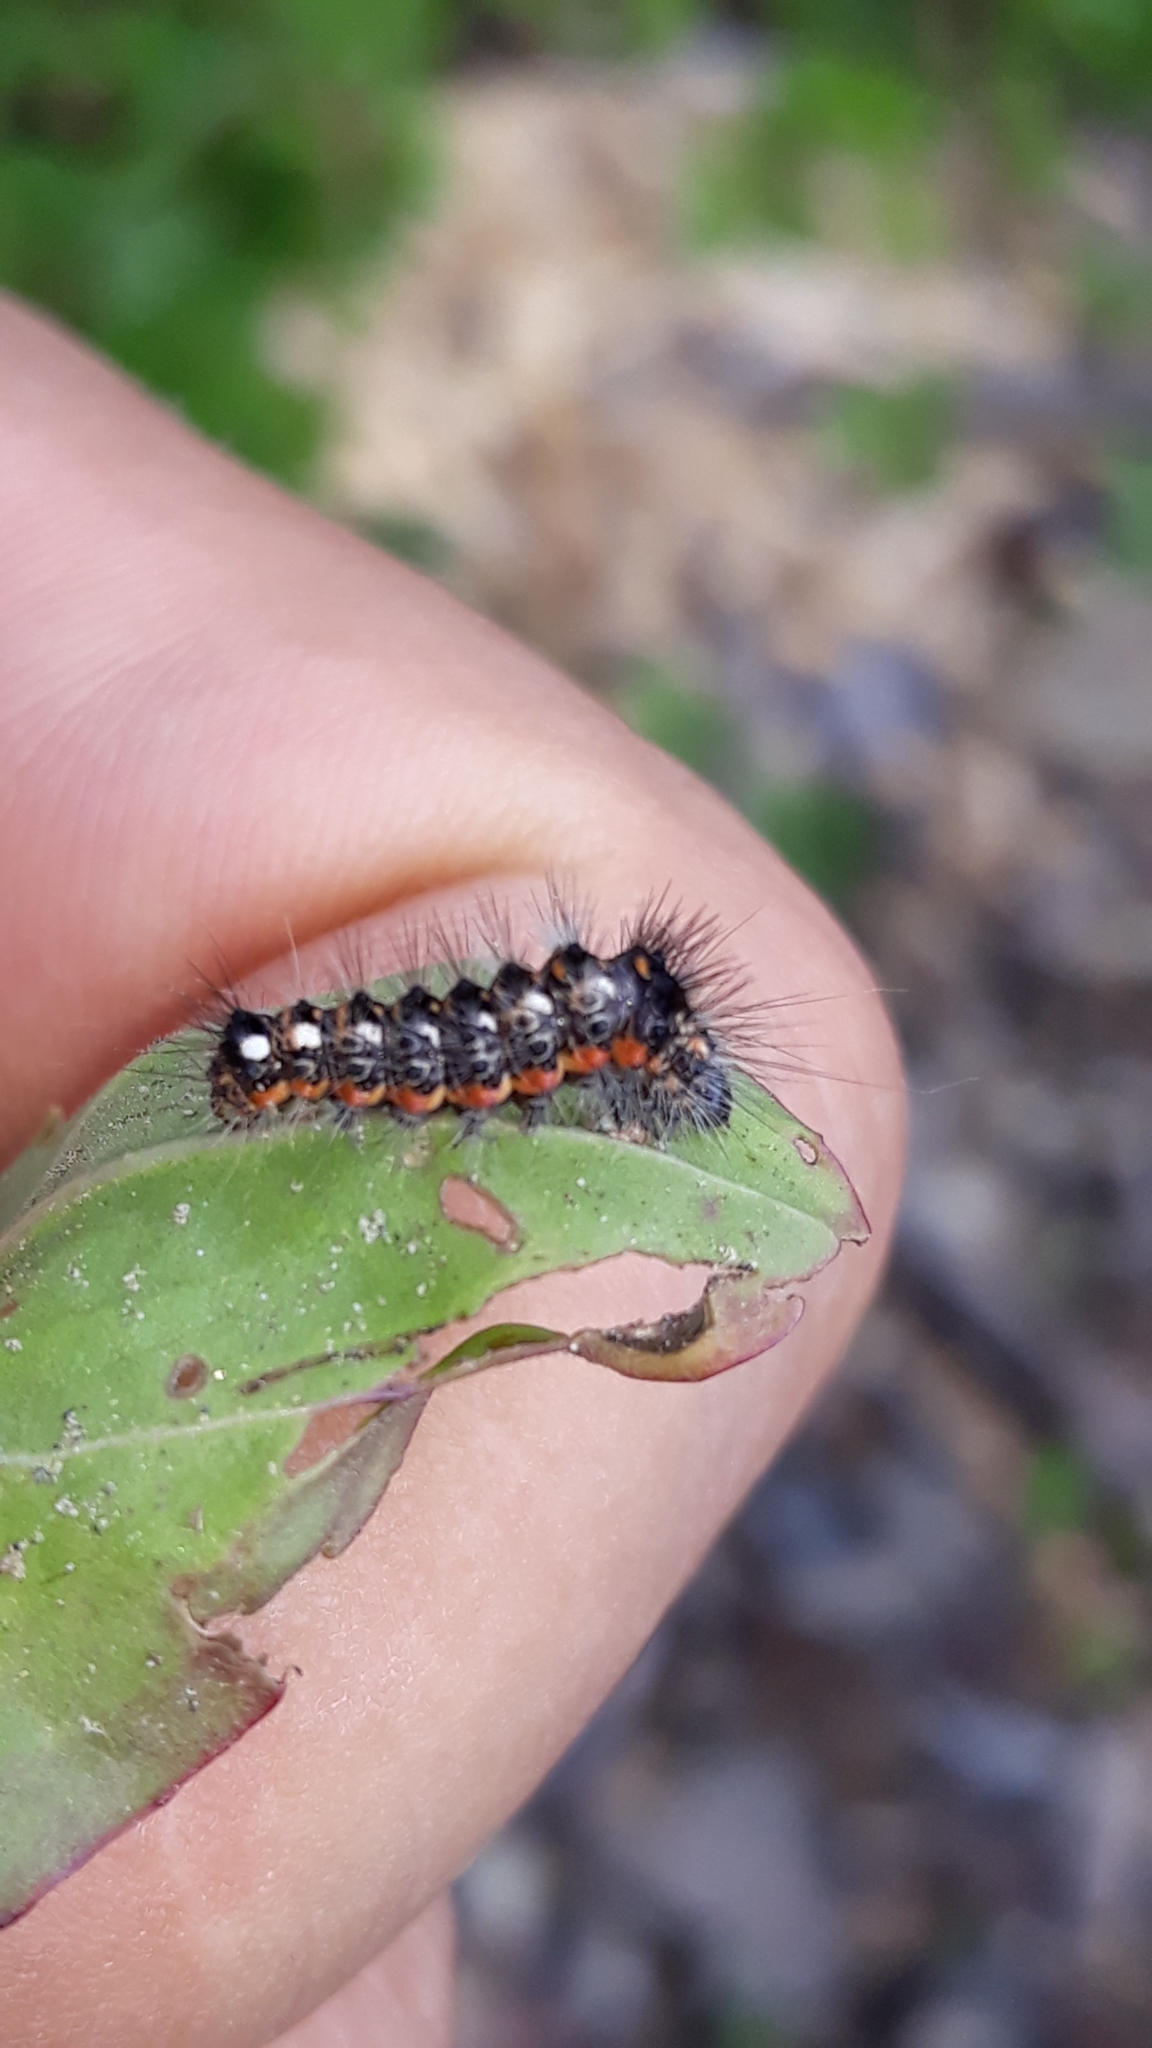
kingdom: Animalia
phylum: Arthropoda
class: Insecta
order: Lepidoptera
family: Noctuidae
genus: Acronicta
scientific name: Acronicta rumicis
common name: Knot grass
